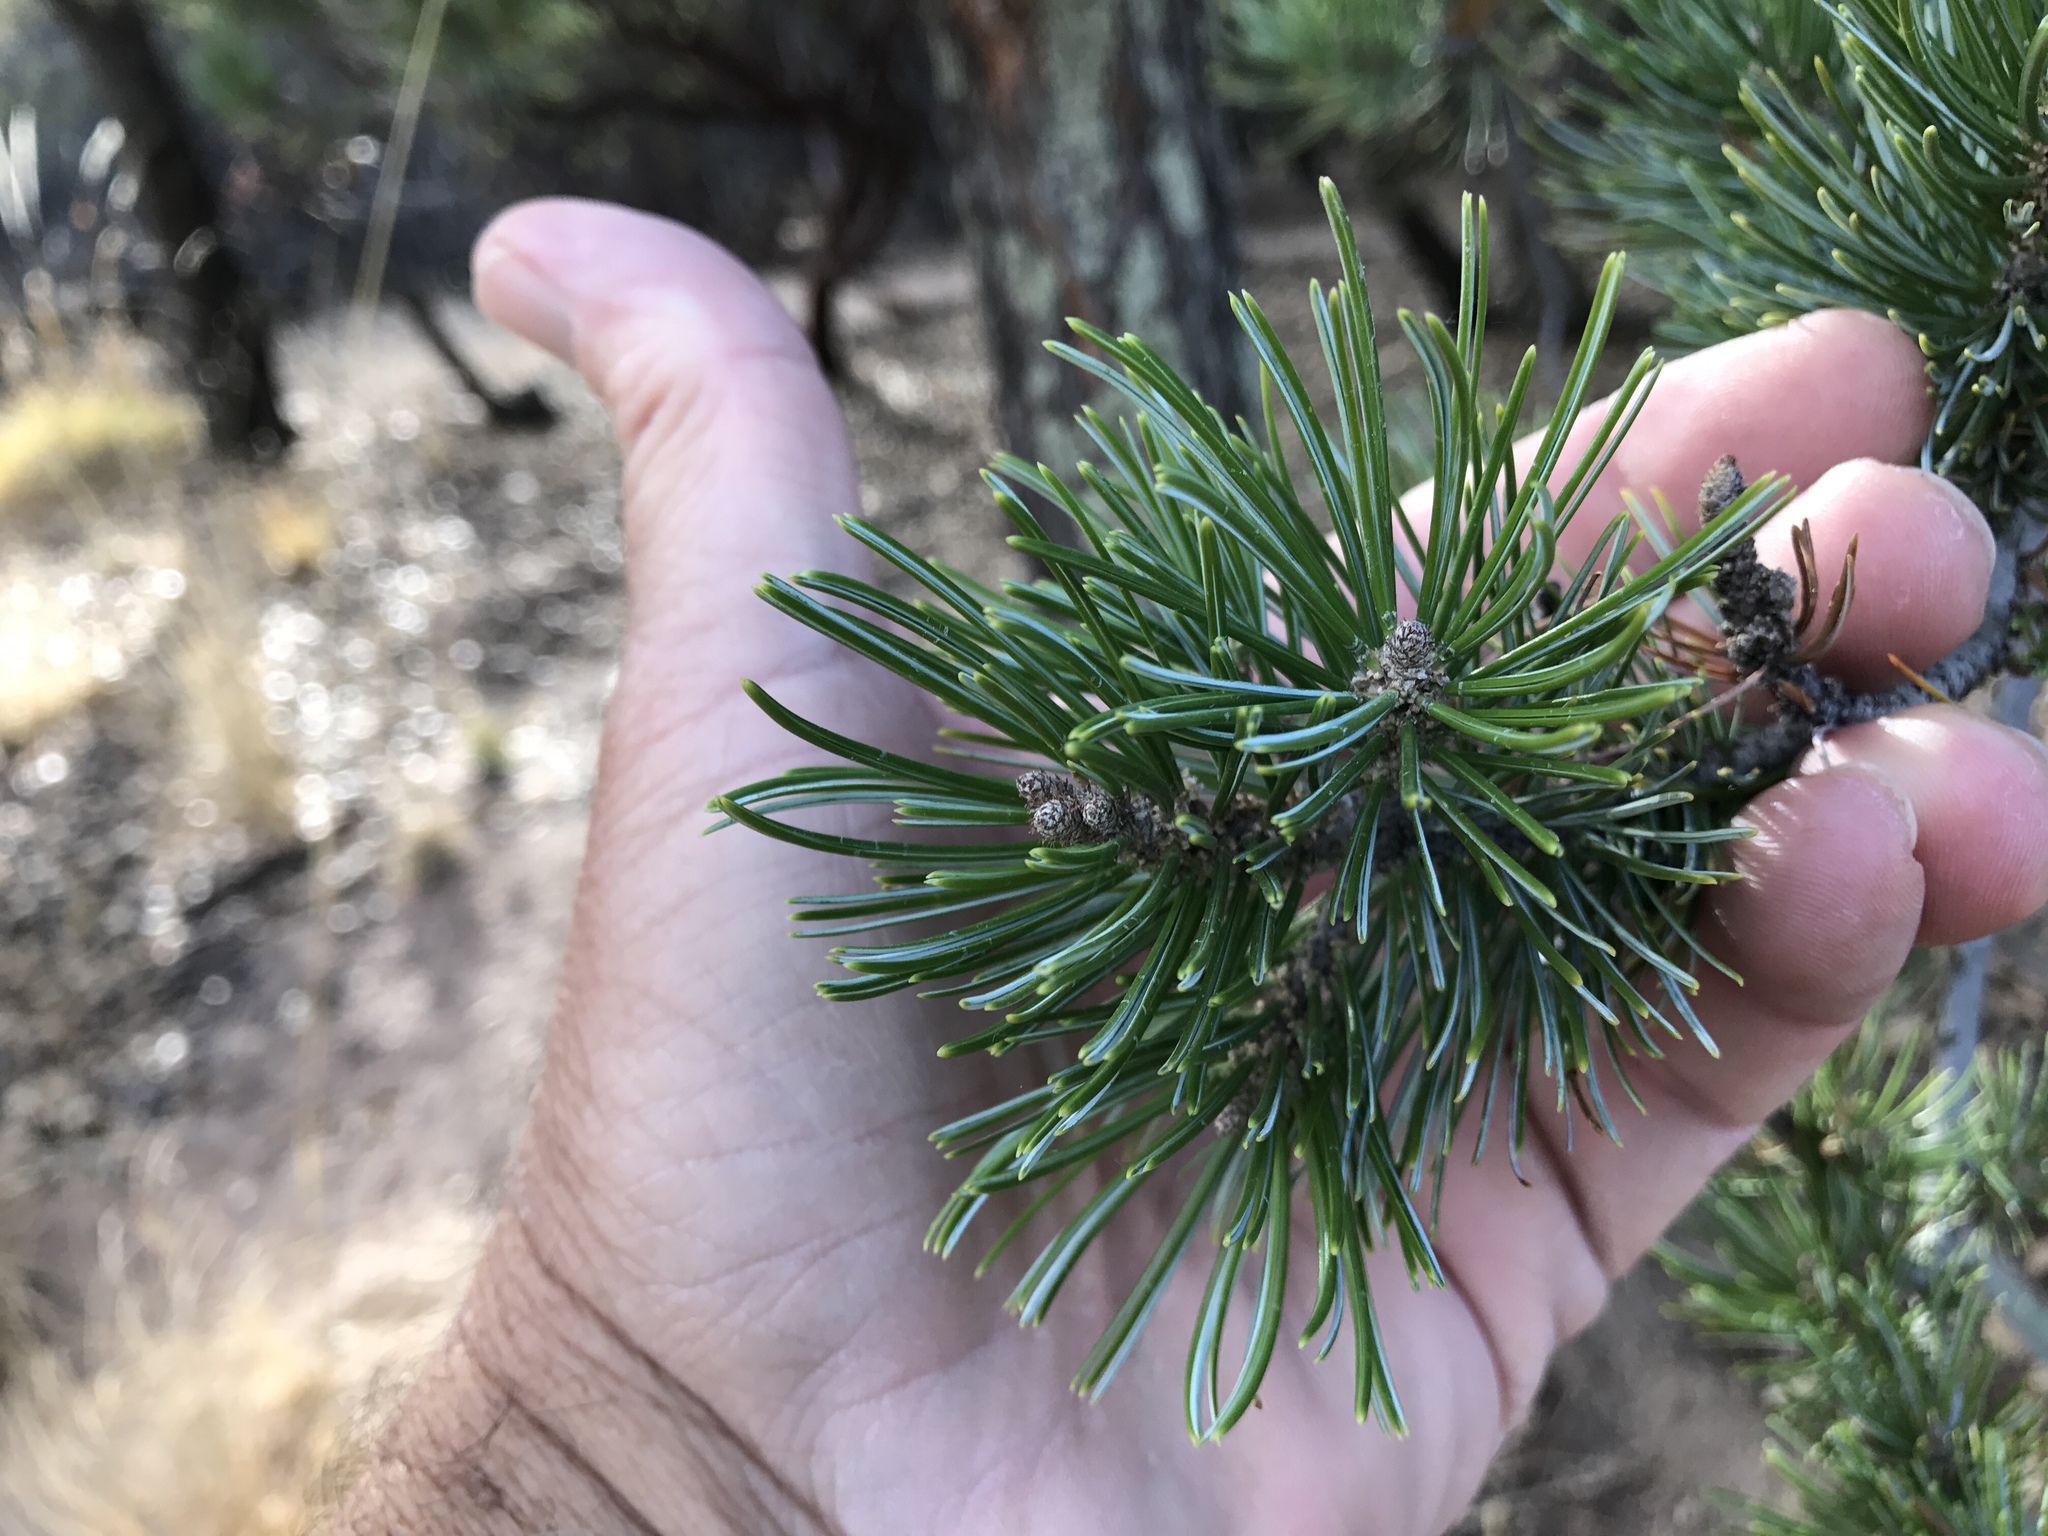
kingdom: Plantae
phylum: Tracheophyta
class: Pinopsida
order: Pinales
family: Pinaceae
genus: Pinus
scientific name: Pinus discolor
